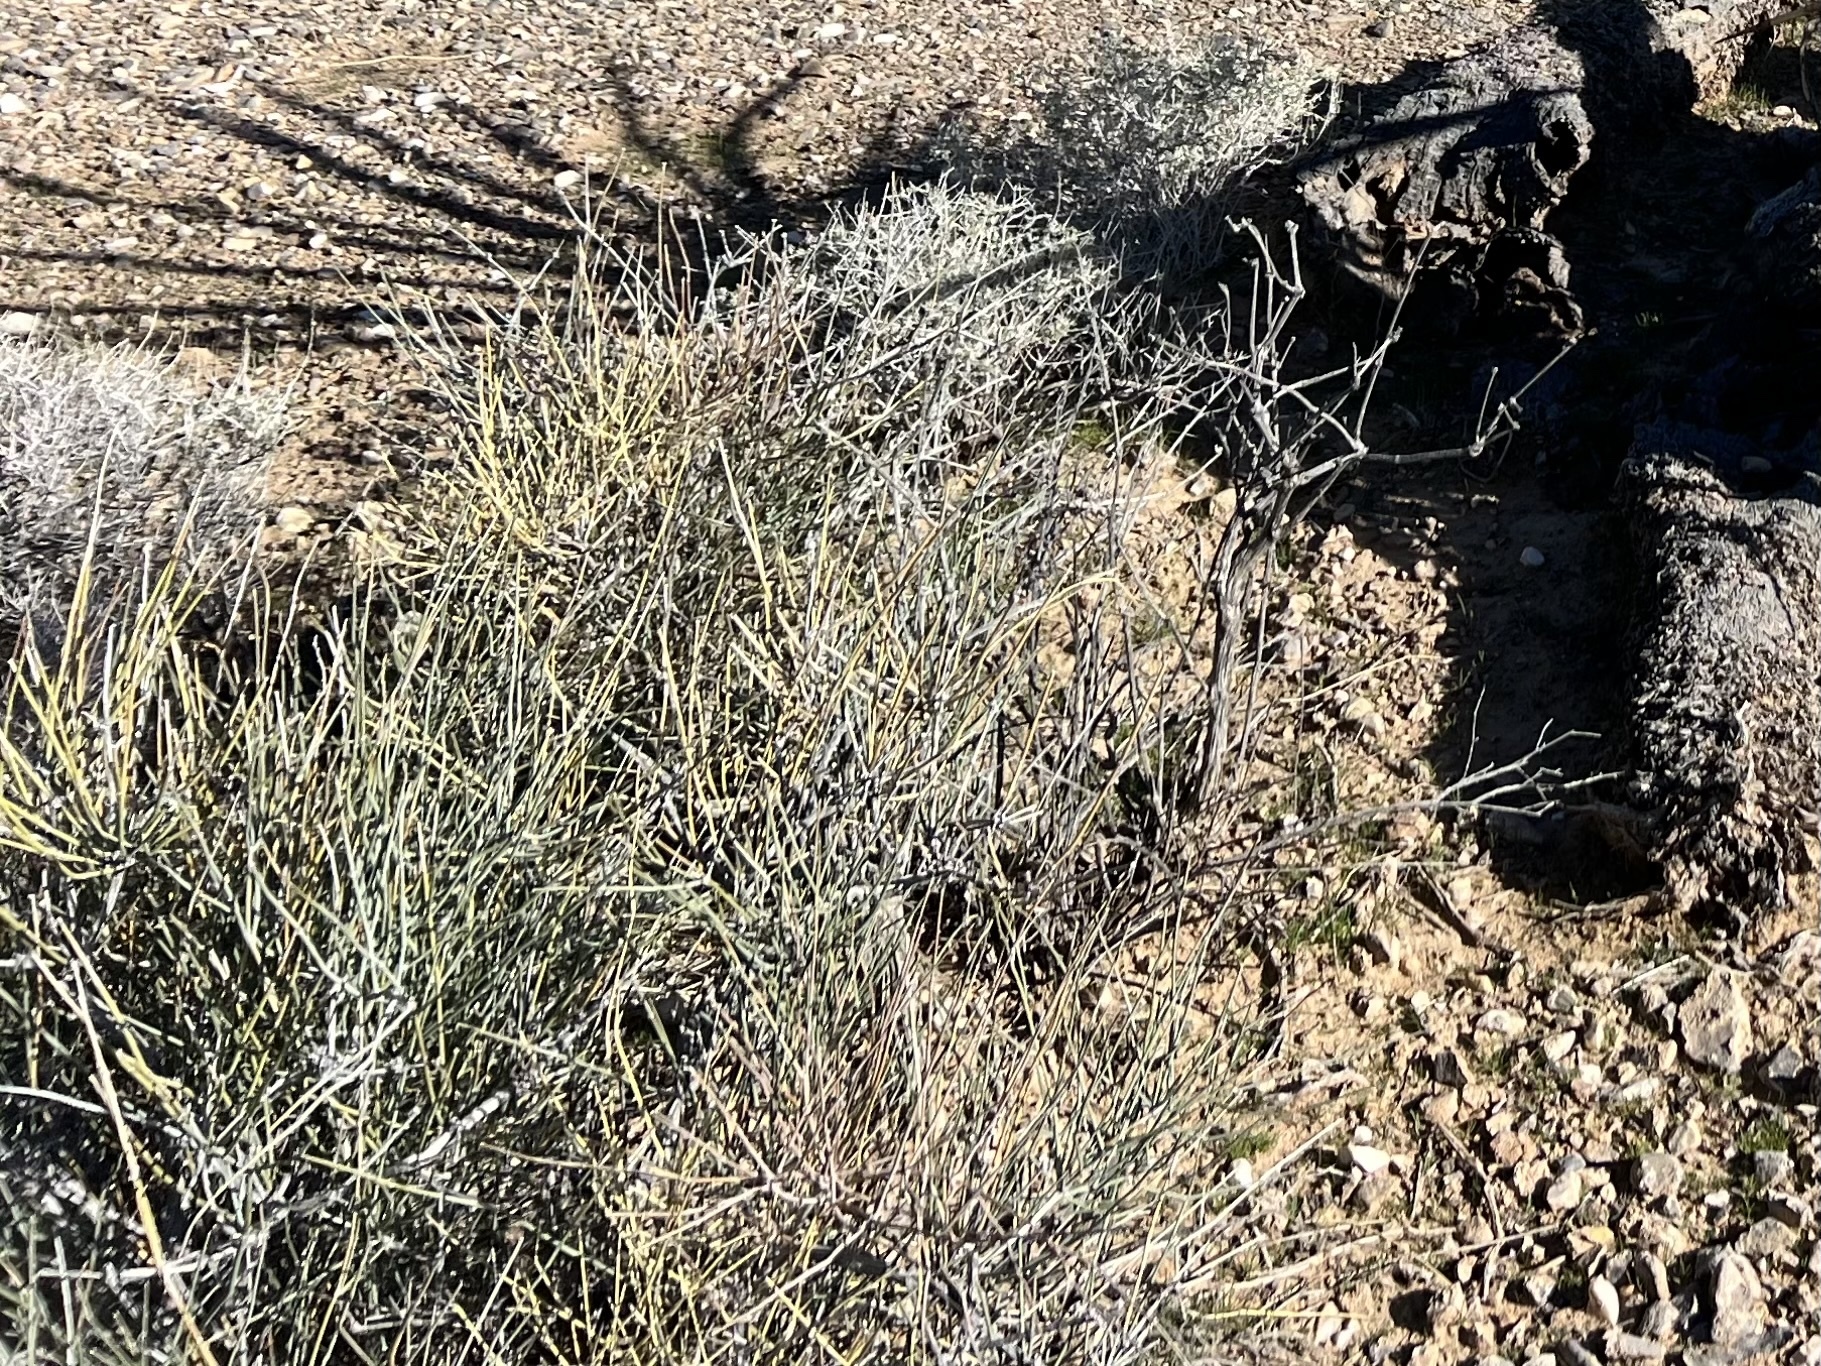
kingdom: Plantae
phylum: Tracheophyta
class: Gnetopsida
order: Ephedrales
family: Ephedraceae
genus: Ephedra
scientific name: Ephedra nevadensis
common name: Gray ephedra
